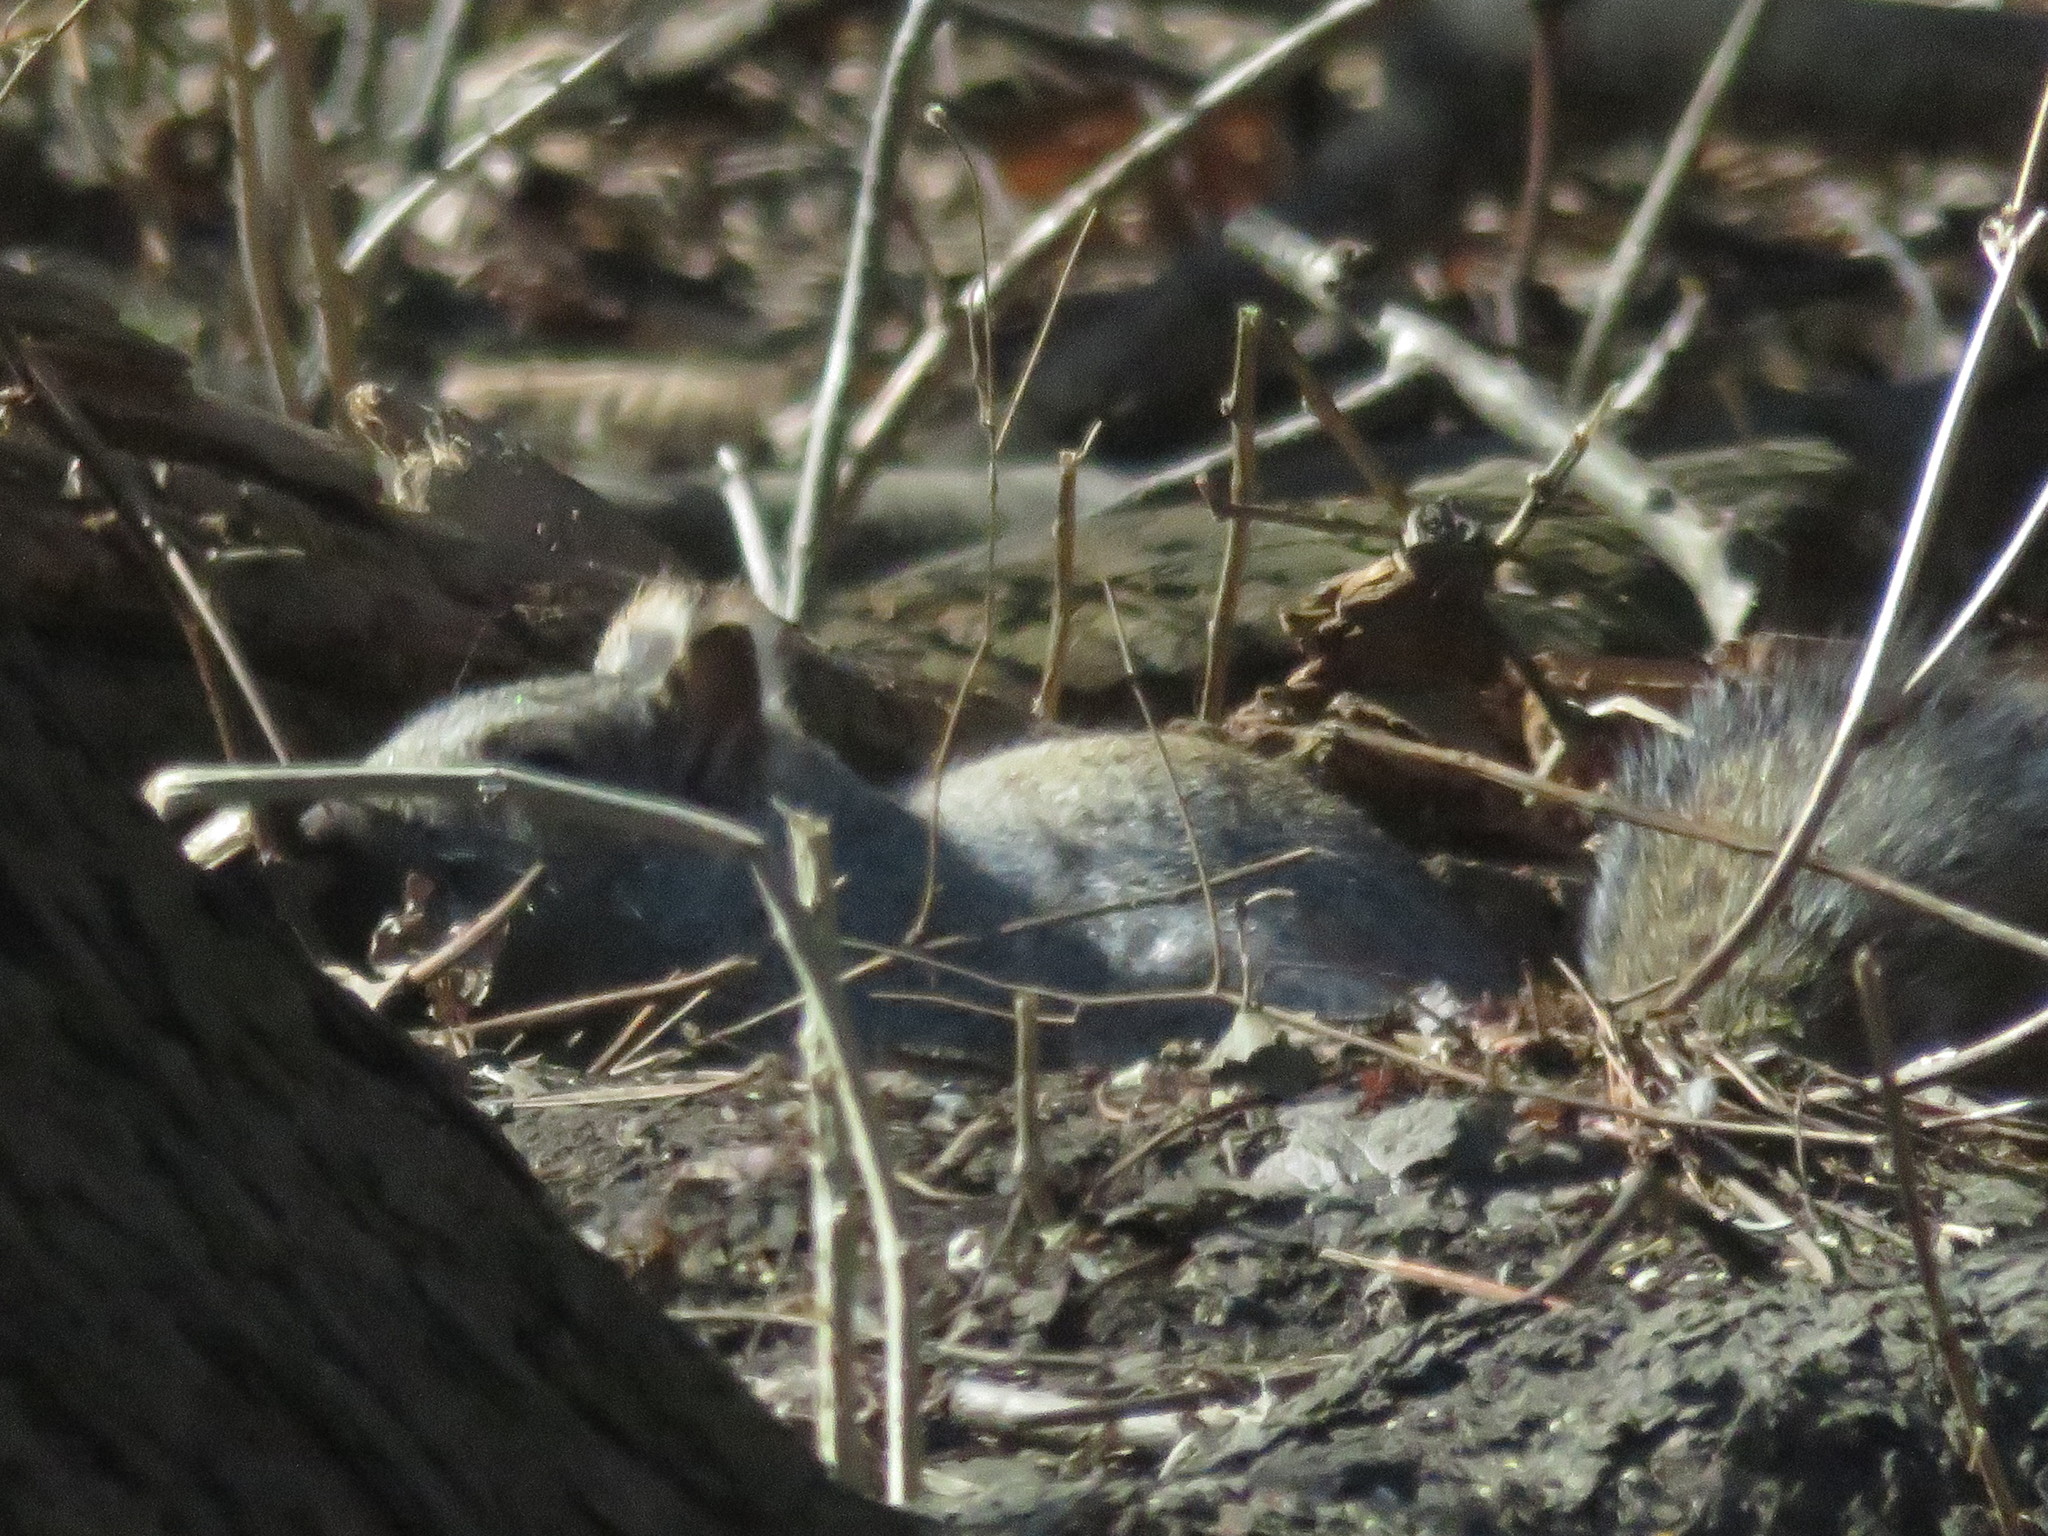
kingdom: Animalia
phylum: Chordata
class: Mammalia
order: Rodentia
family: Sciuridae
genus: Sciurus
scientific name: Sciurus carolinensis
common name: Eastern gray squirrel
